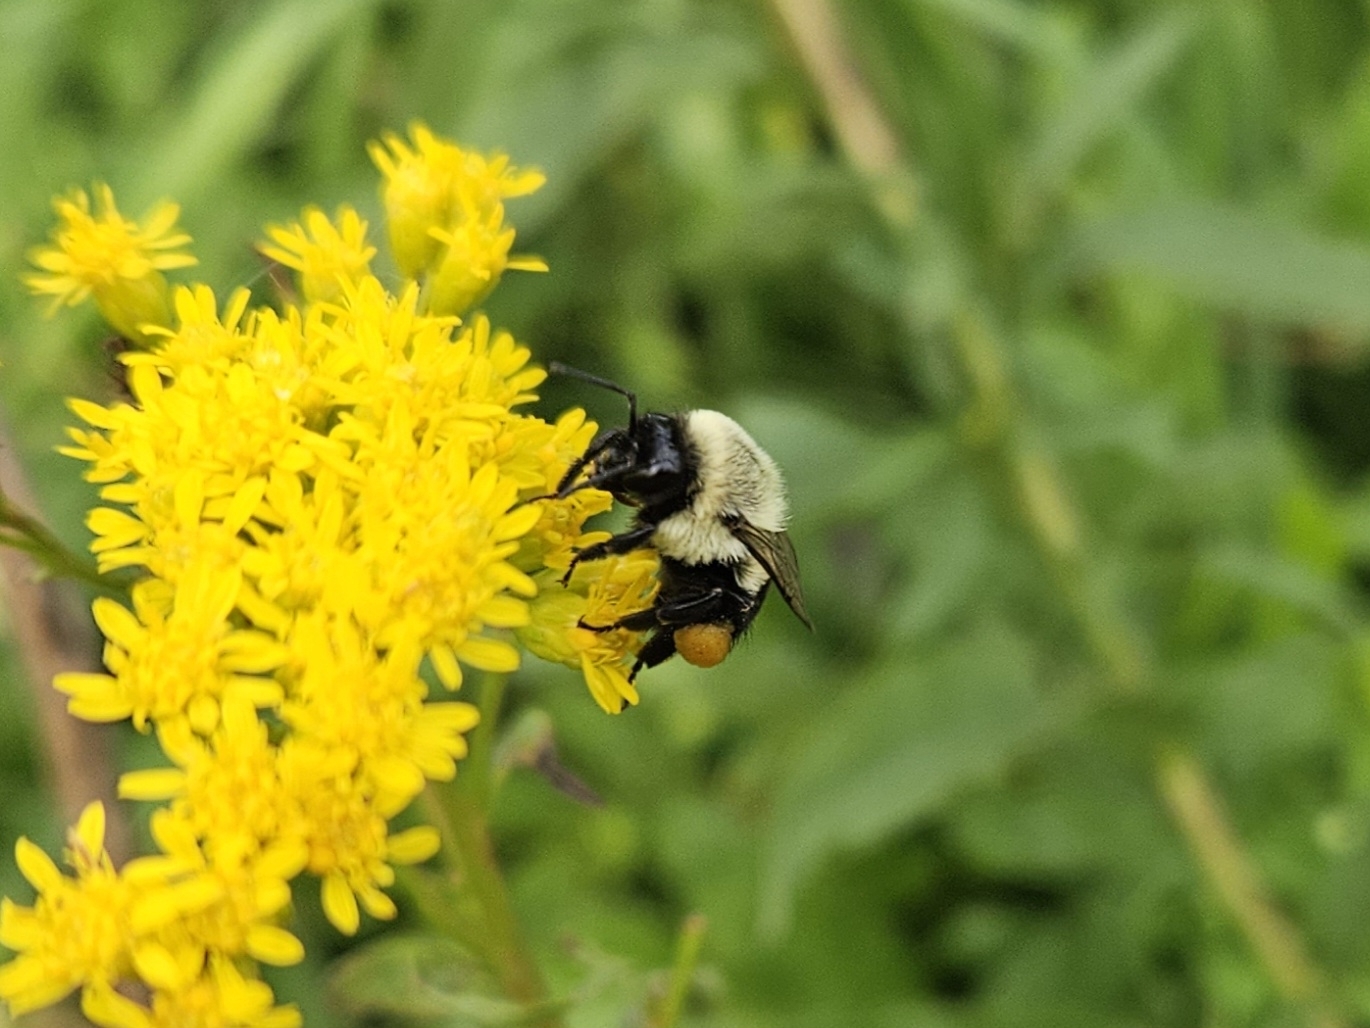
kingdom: Animalia
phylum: Arthropoda
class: Insecta
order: Hymenoptera
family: Apidae
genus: Bombus
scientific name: Bombus impatiens
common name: Common eastern bumble bee
